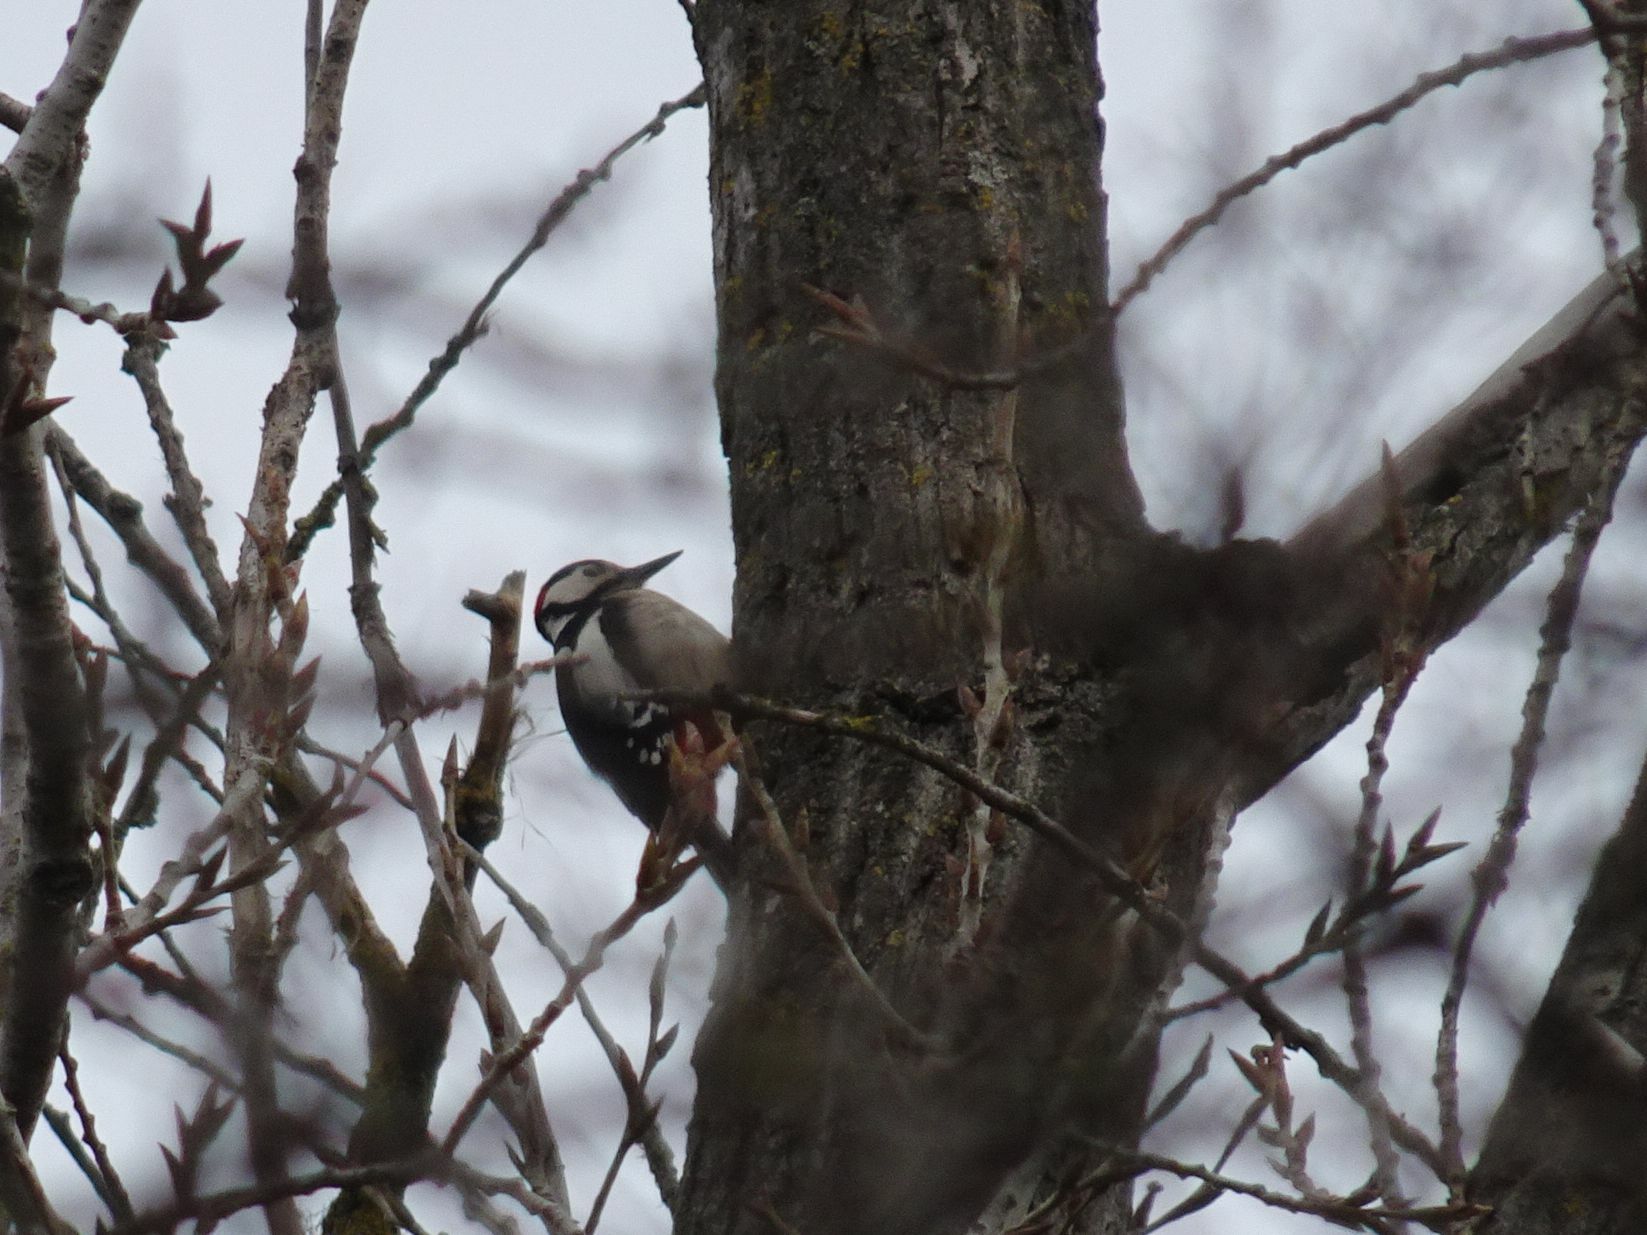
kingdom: Animalia
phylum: Chordata
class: Aves
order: Piciformes
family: Picidae
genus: Dendrocopos
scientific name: Dendrocopos major
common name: Great spotted woodpecker
